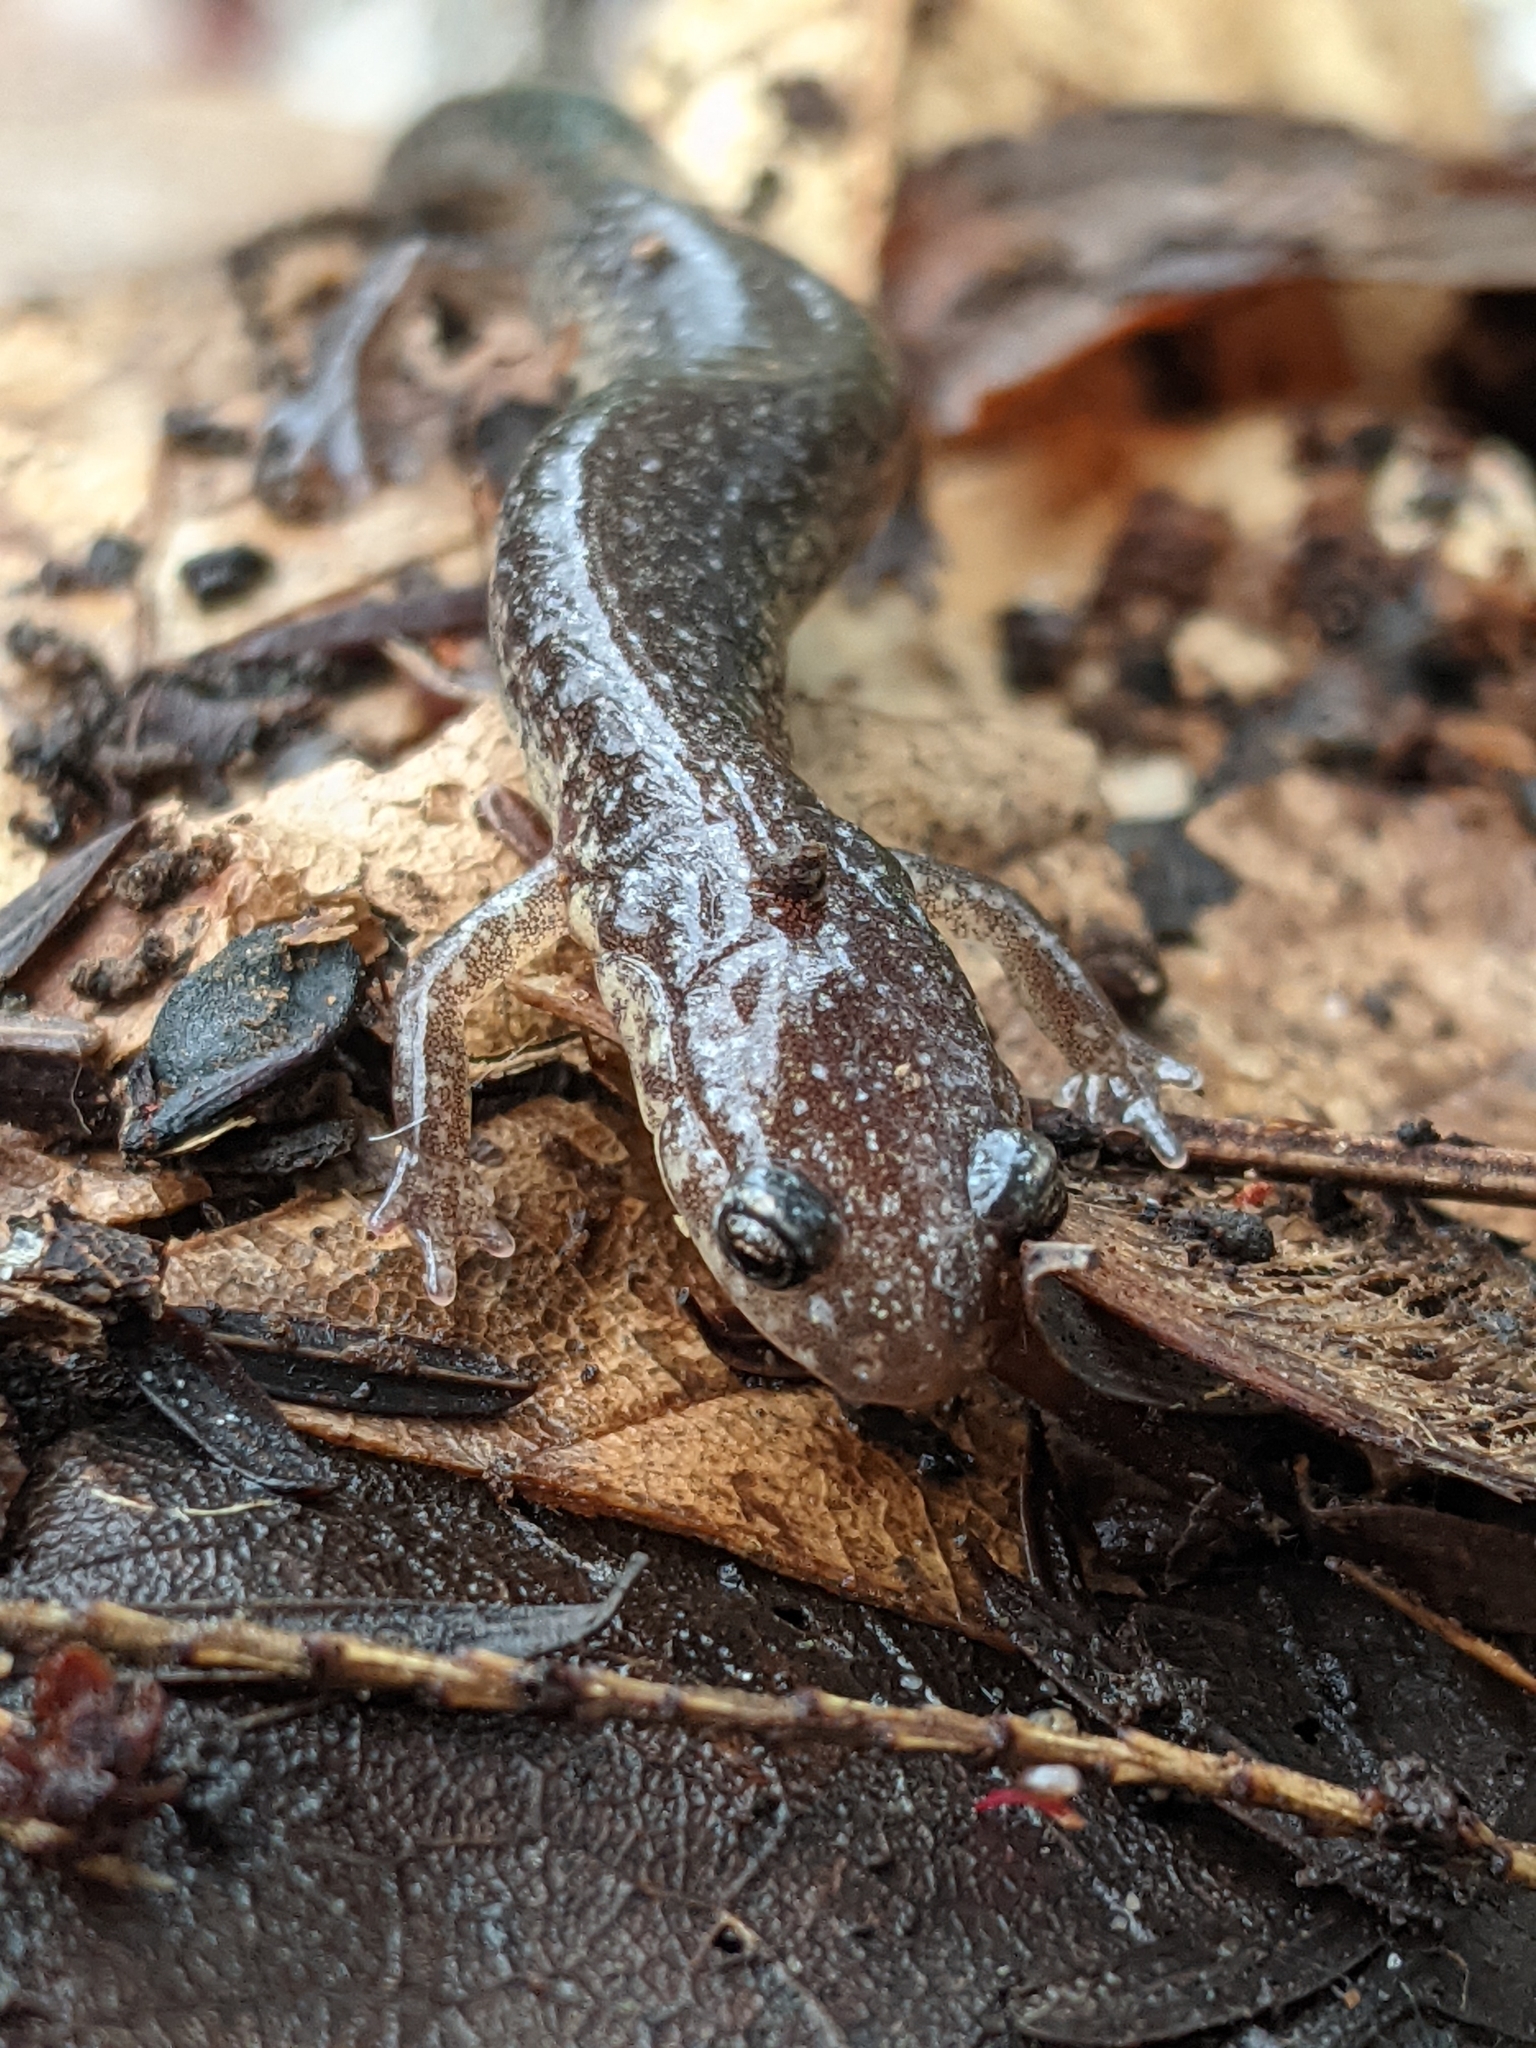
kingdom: Animalia
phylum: Chordata
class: Amphibia
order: Caudata
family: Plethodontidae
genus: Plethodon
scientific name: Plethodon cinereus
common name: Redback salamander
